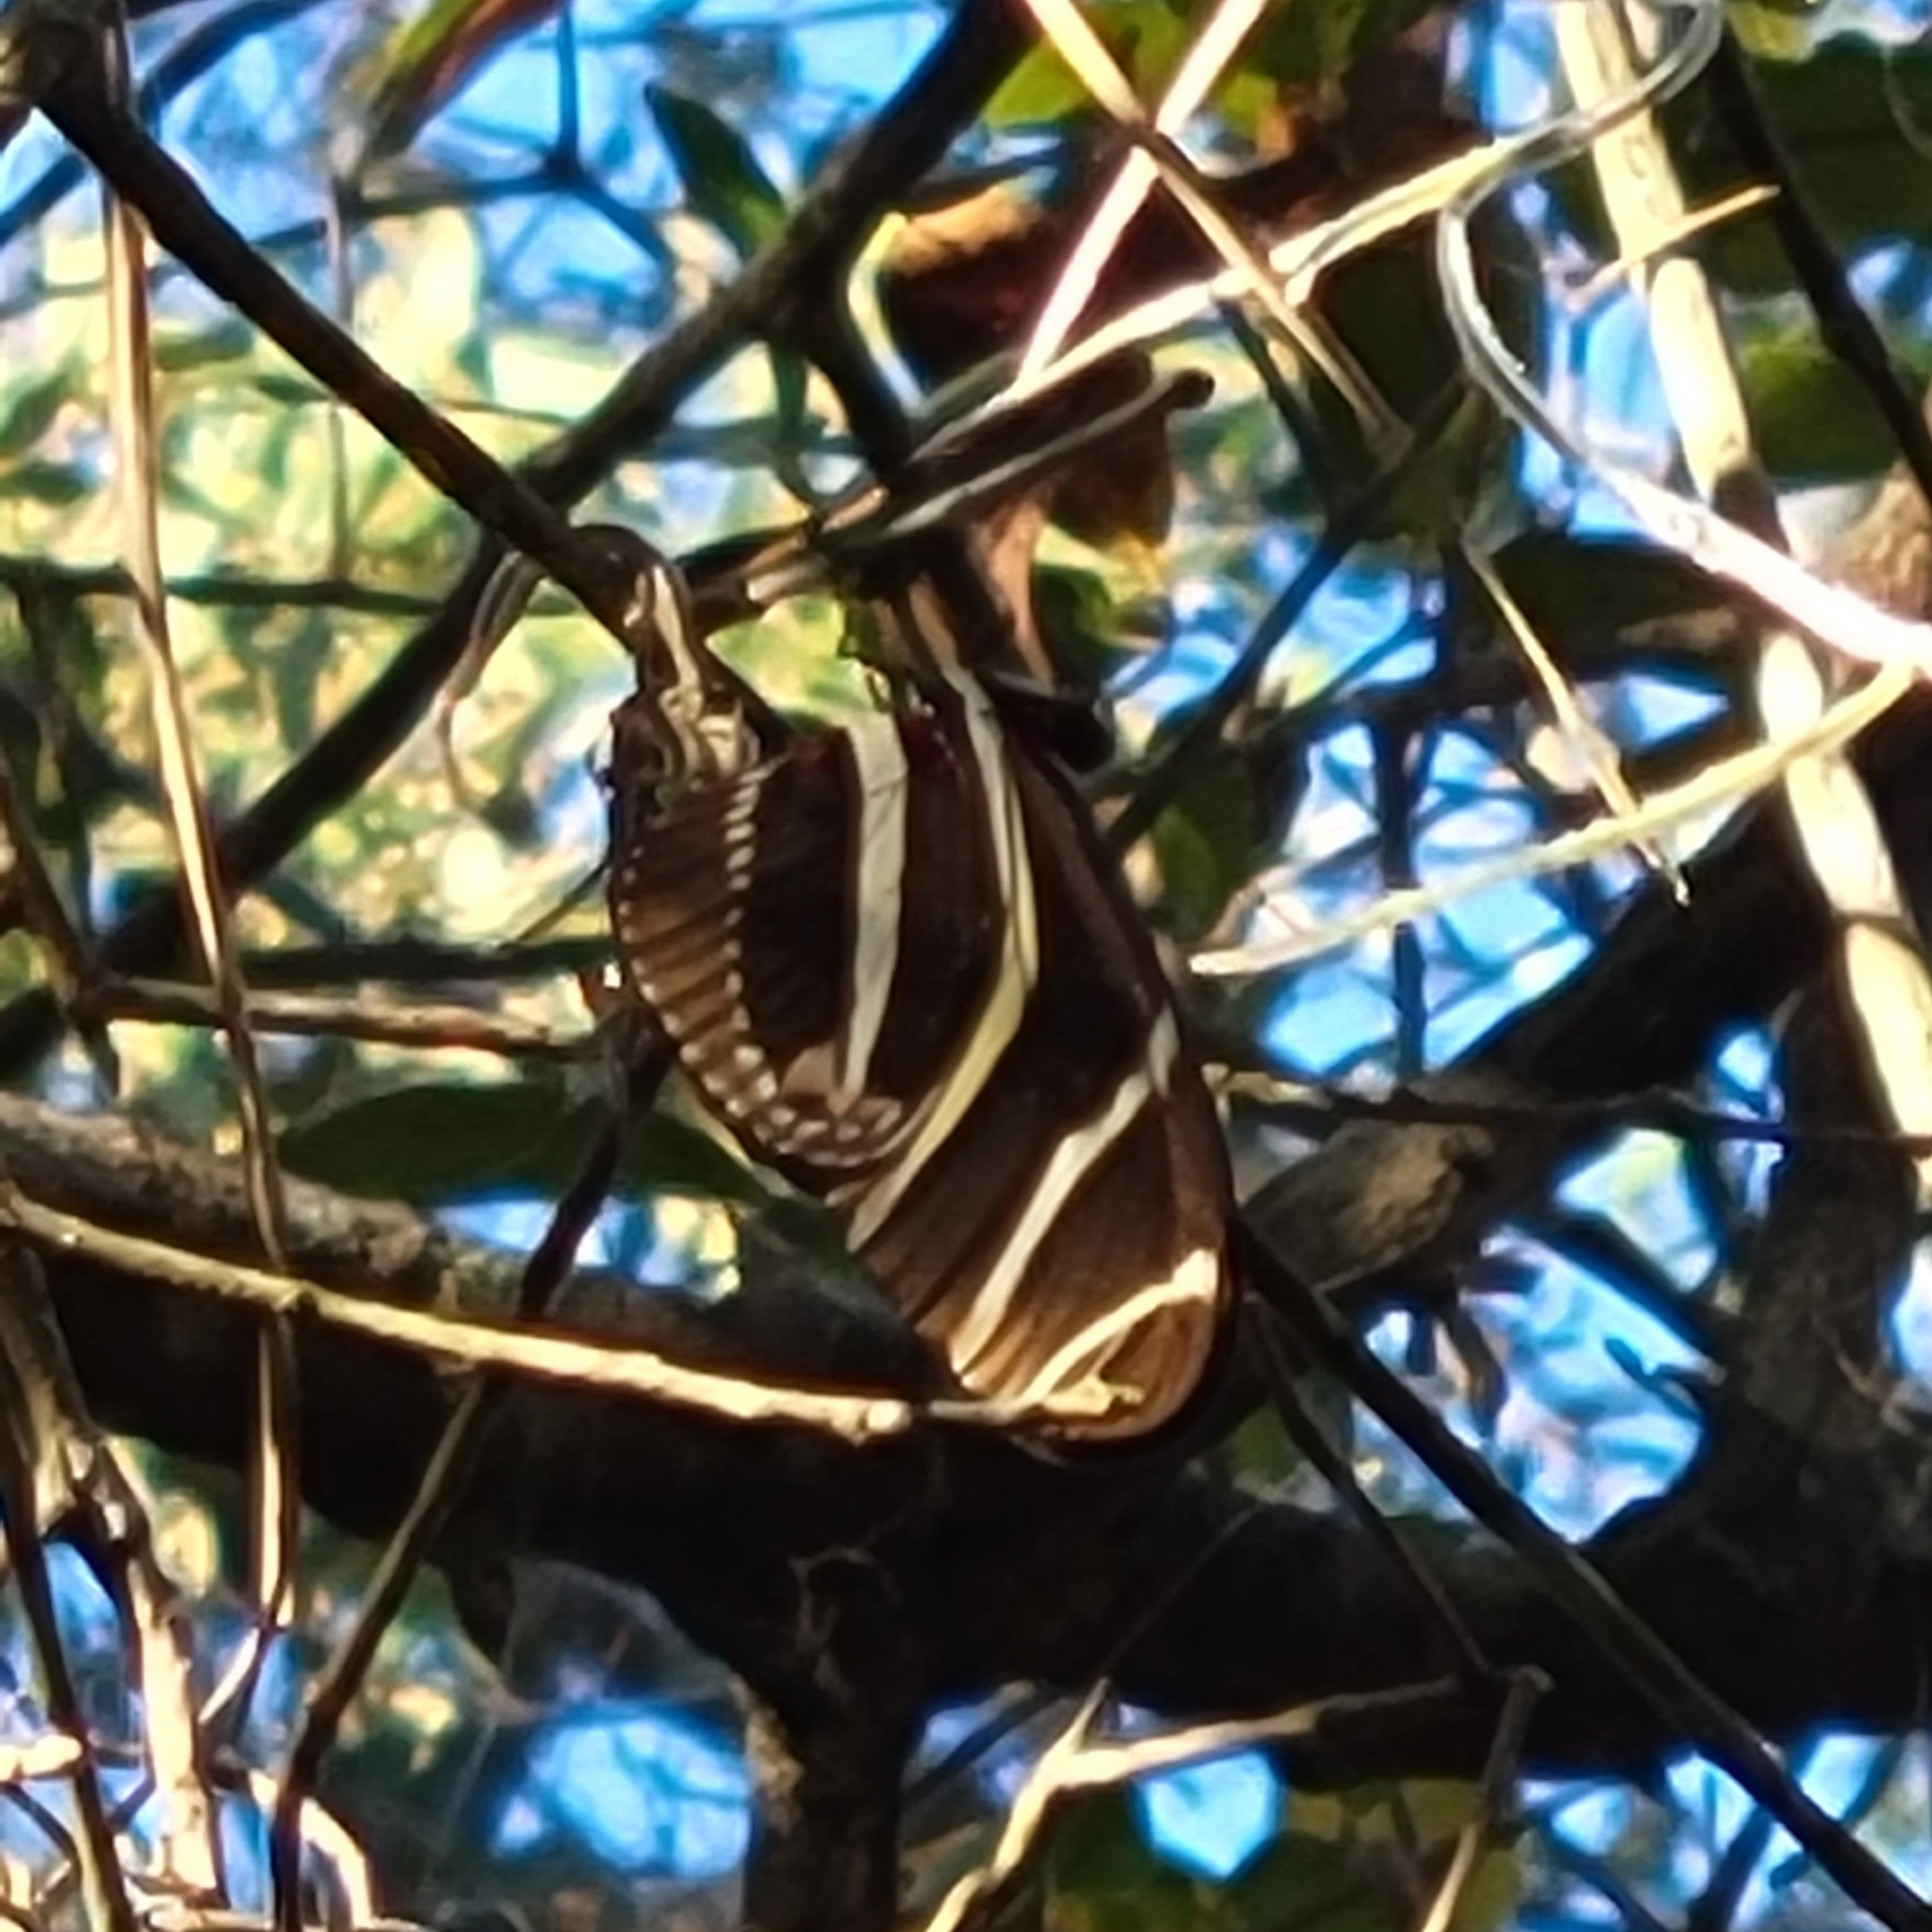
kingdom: Animalia
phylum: Arthropoda
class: Insecta
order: Lepidoptera
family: Nymphalidae
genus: Heliconius
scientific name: Heliconius charithonia
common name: Zebra long wing
